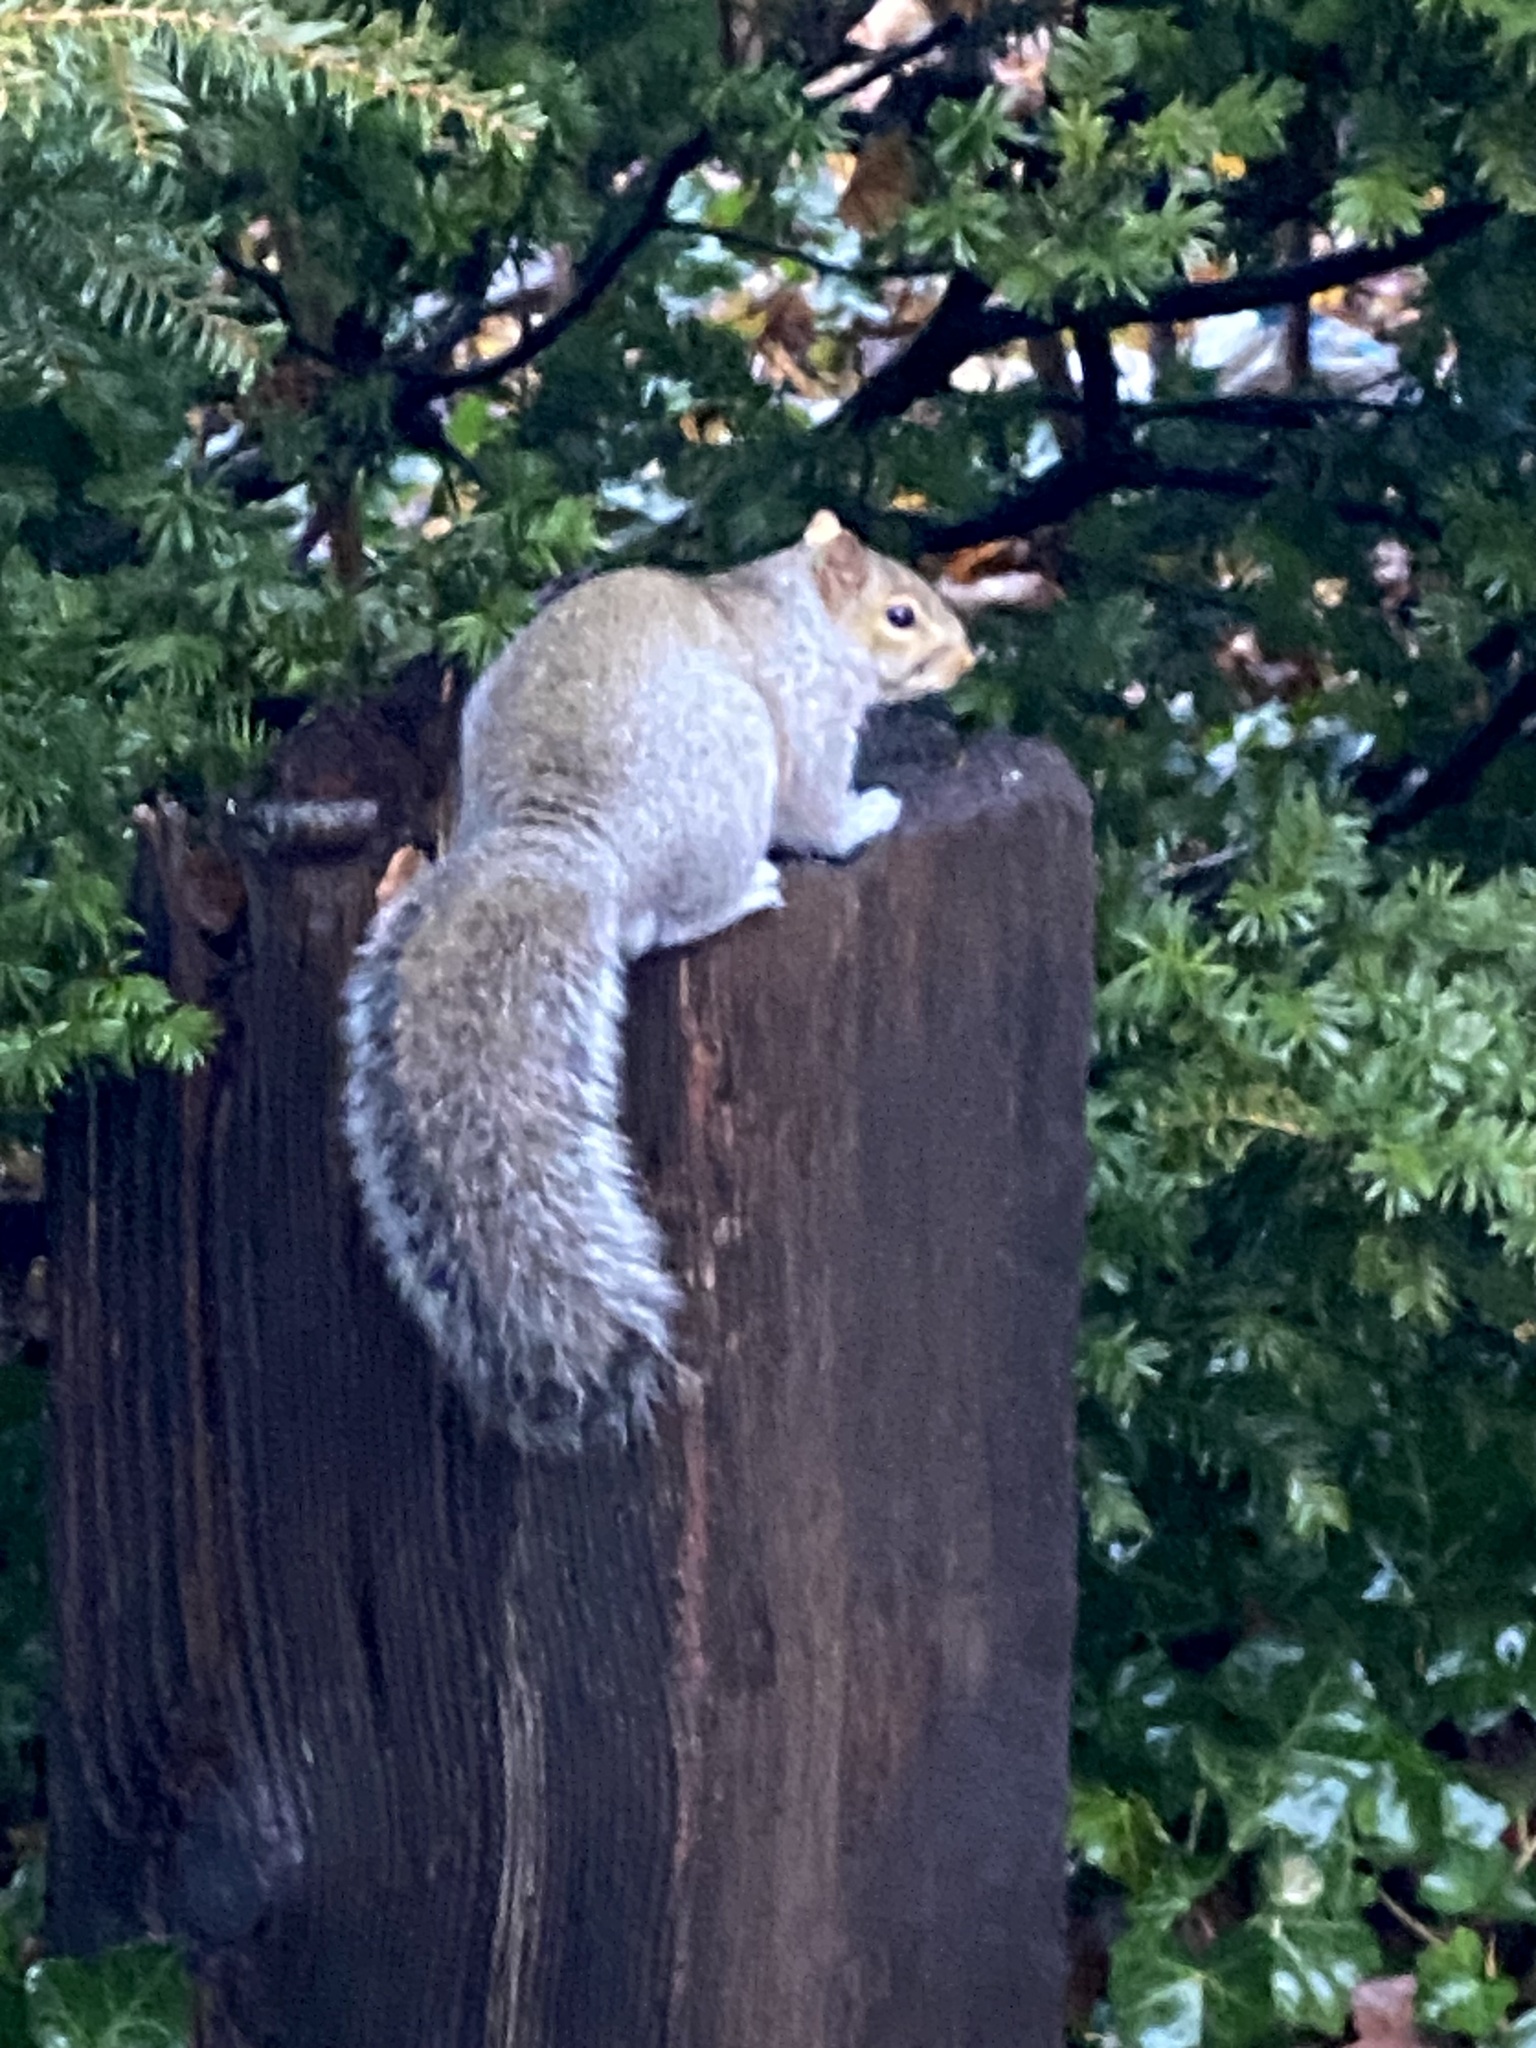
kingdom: Animalia
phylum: Chordata
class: Mammalia
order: Rodentia
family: Sciuridae
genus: Sciurus
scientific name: Sciurus carolinensis
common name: Eastern gray squirrel
